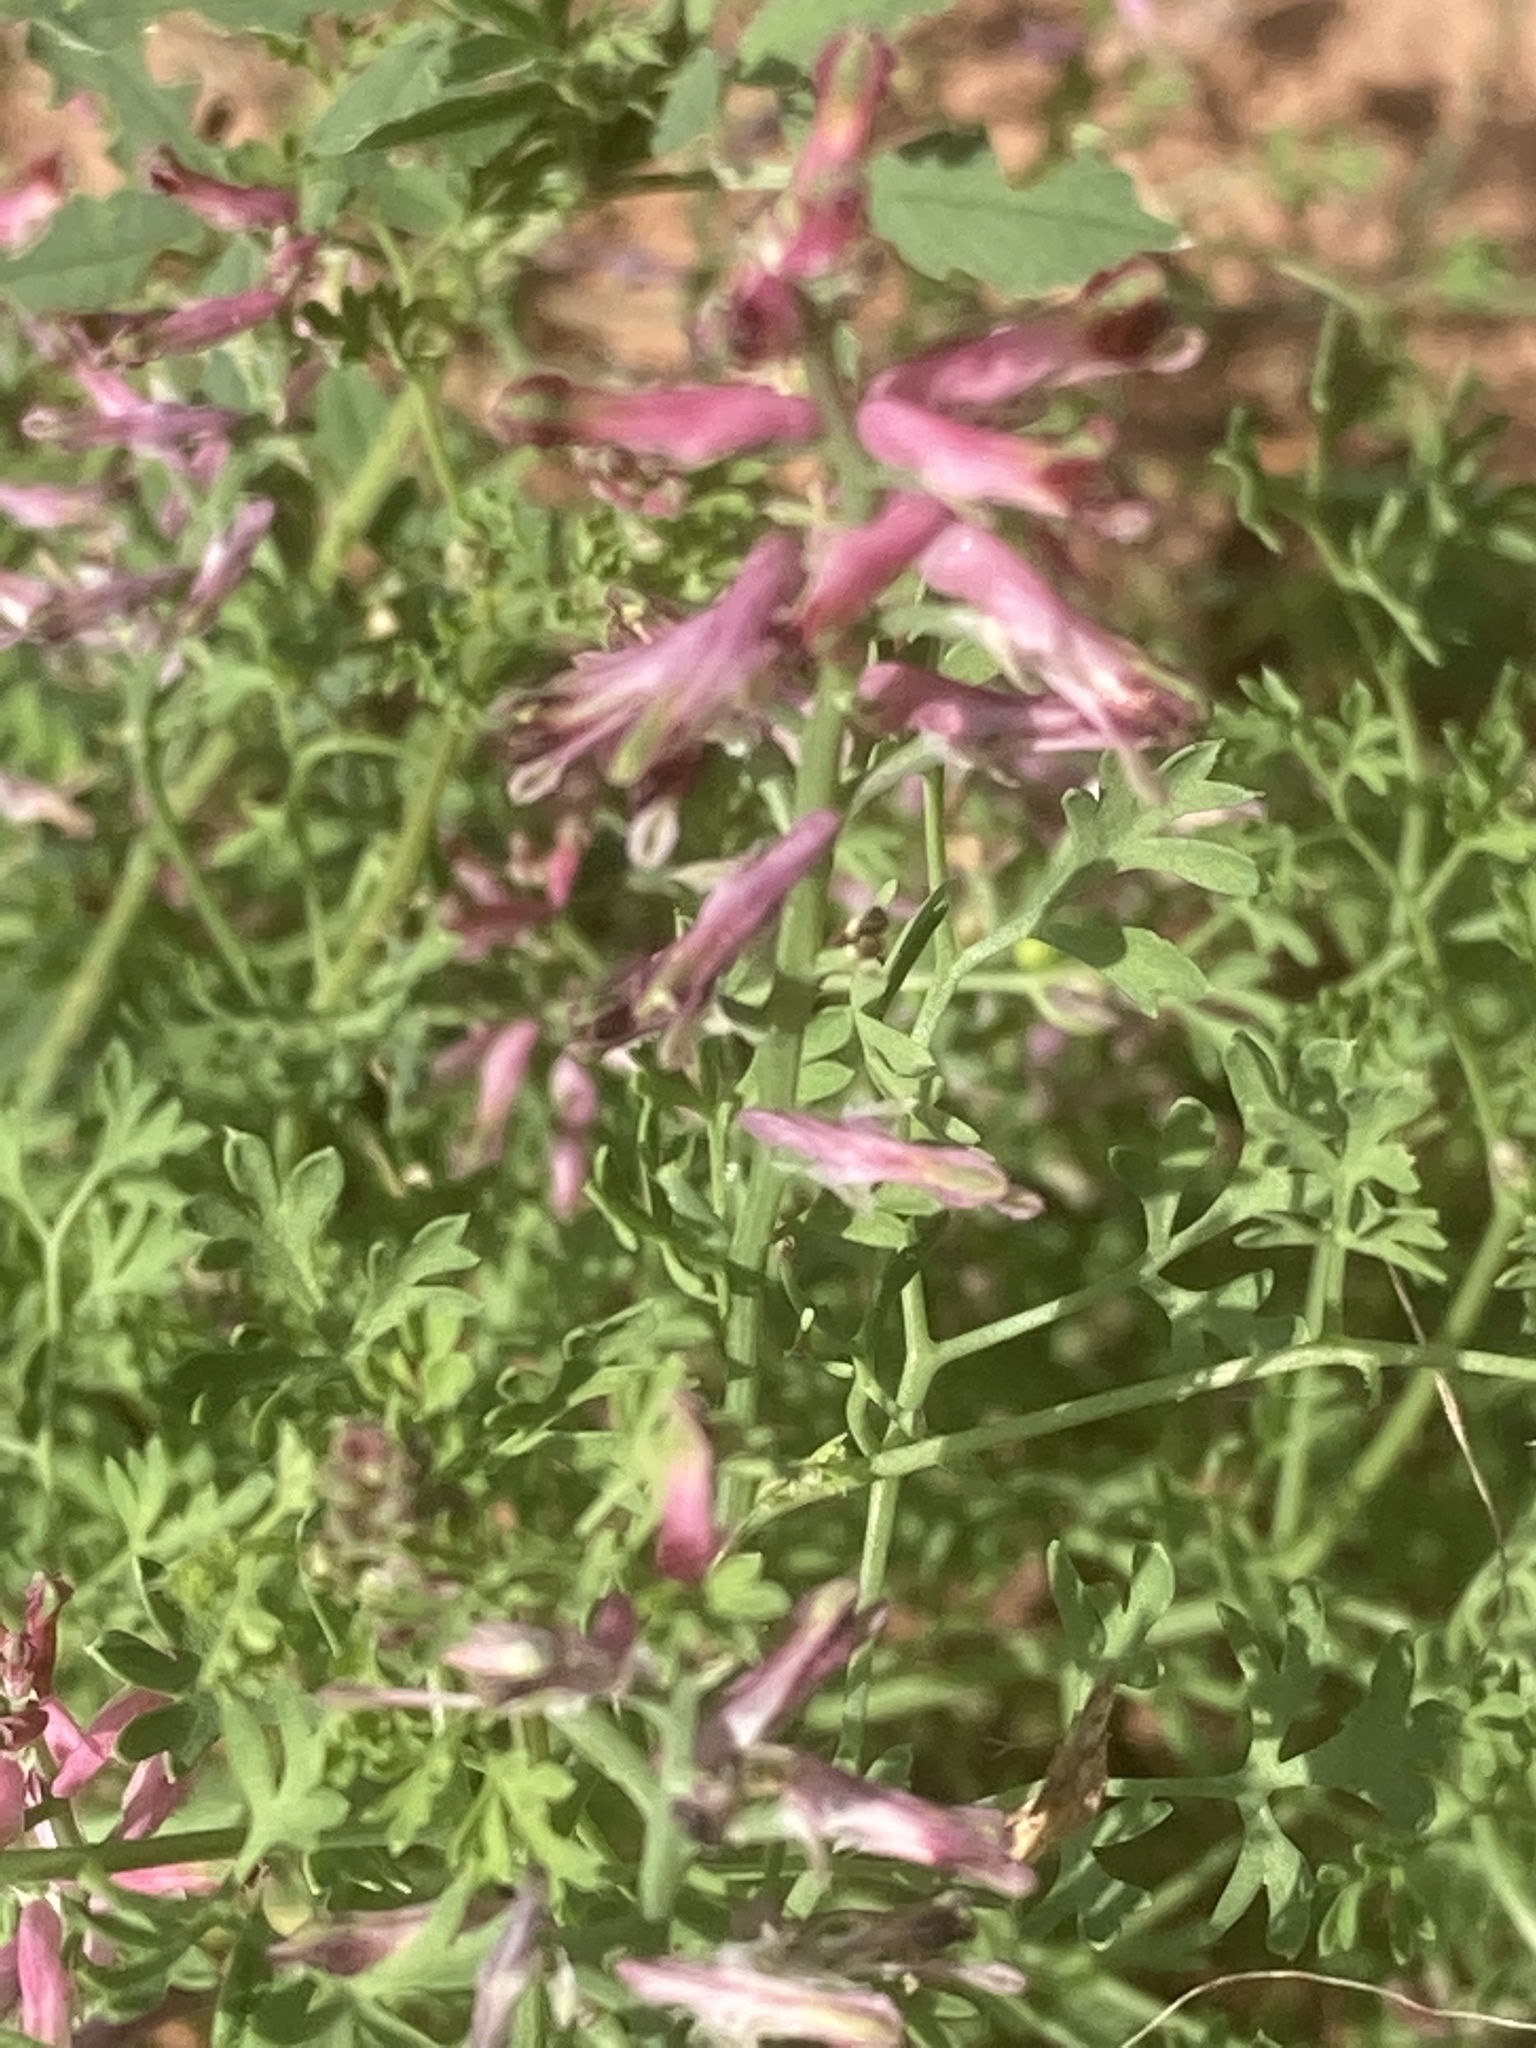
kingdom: Plantae
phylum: Tracheophyta
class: Magnoliopsida
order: Ranunculales
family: Papaveraceae
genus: Fumaria
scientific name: Fumaria officinalis
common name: Common fumitory
